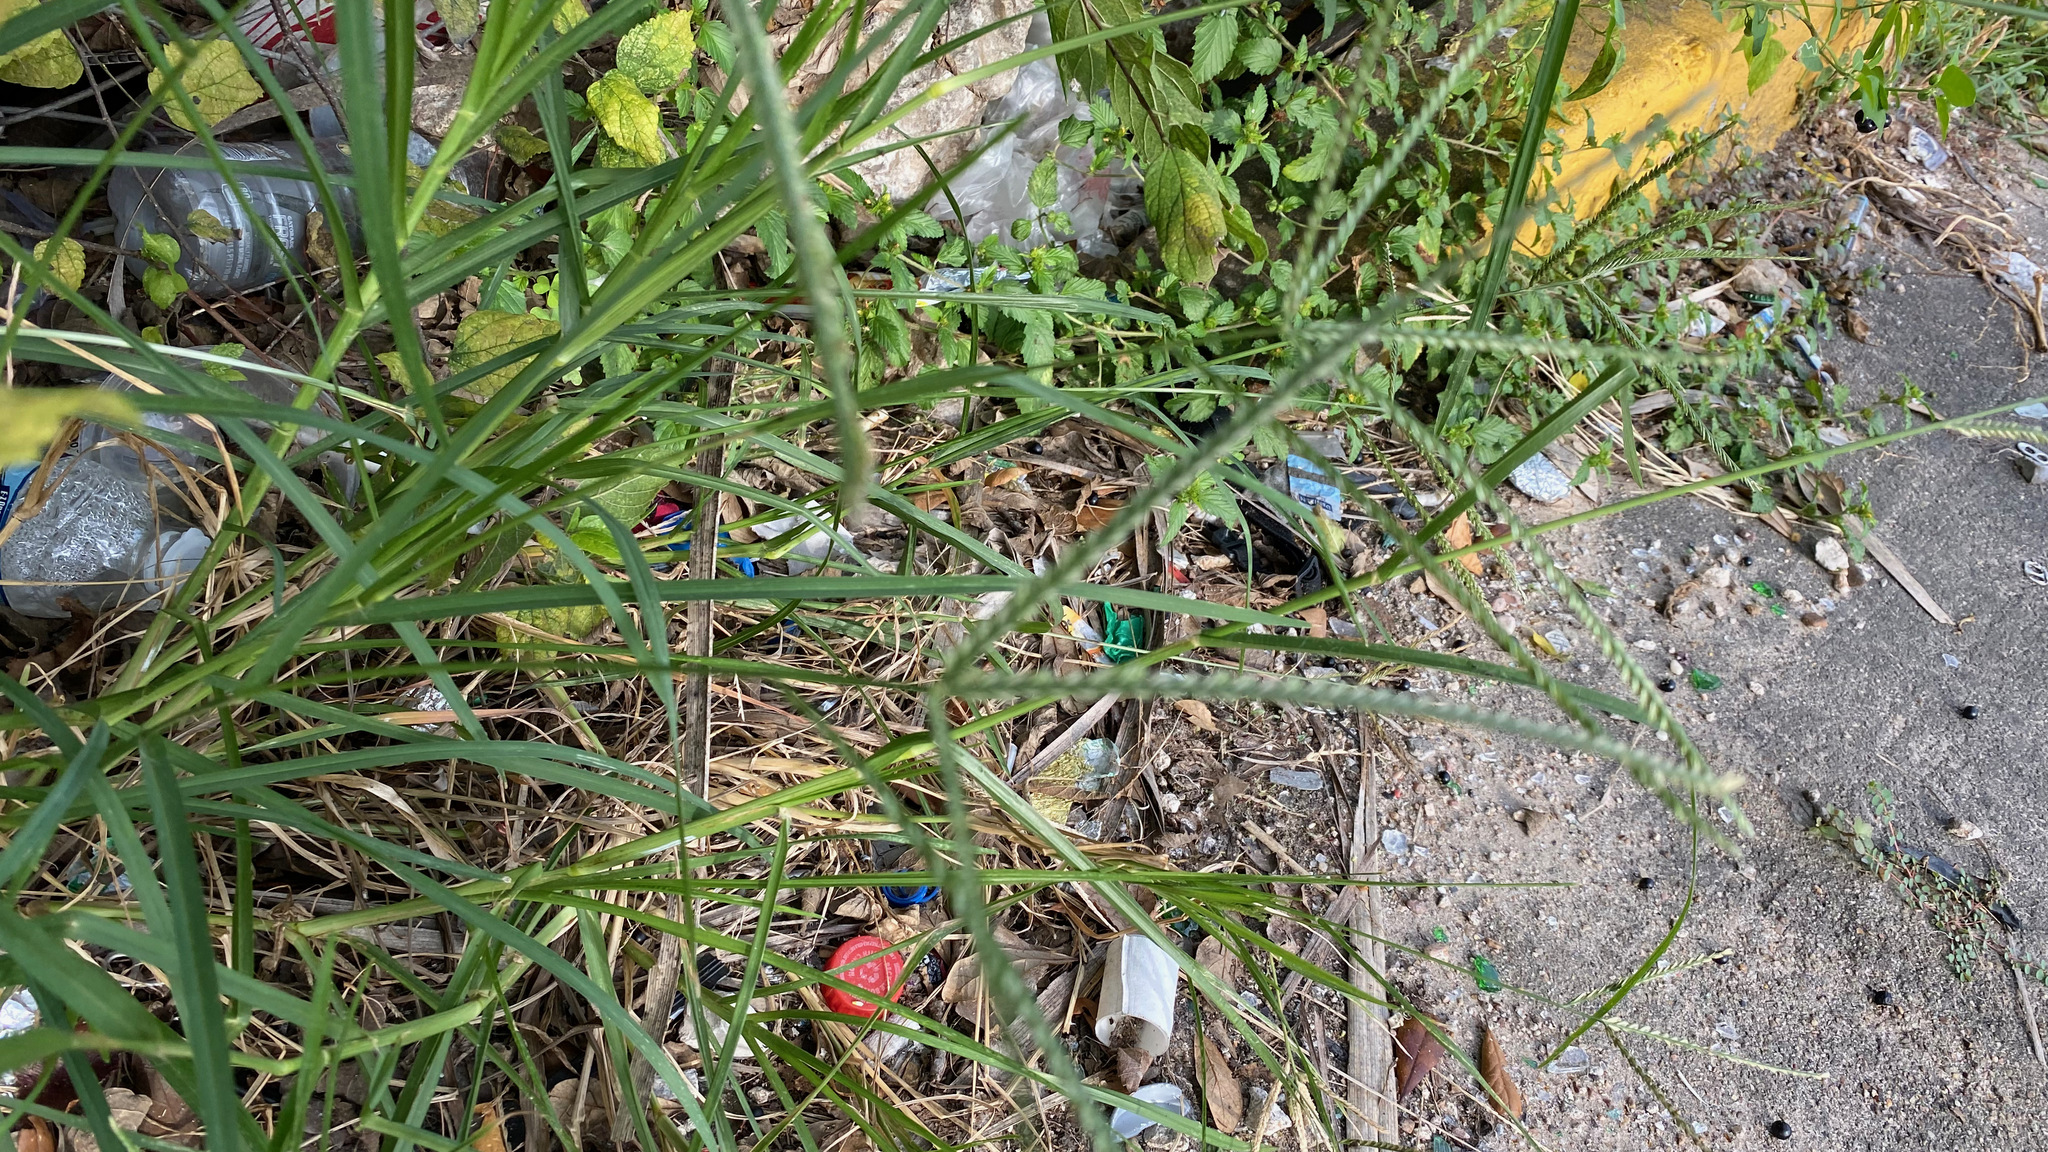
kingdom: Plantae
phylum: Tracheophyta
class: Liliopsida
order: Poales
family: Poaceae
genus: Eleusine
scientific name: Eleusine indica
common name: Yard-grass
